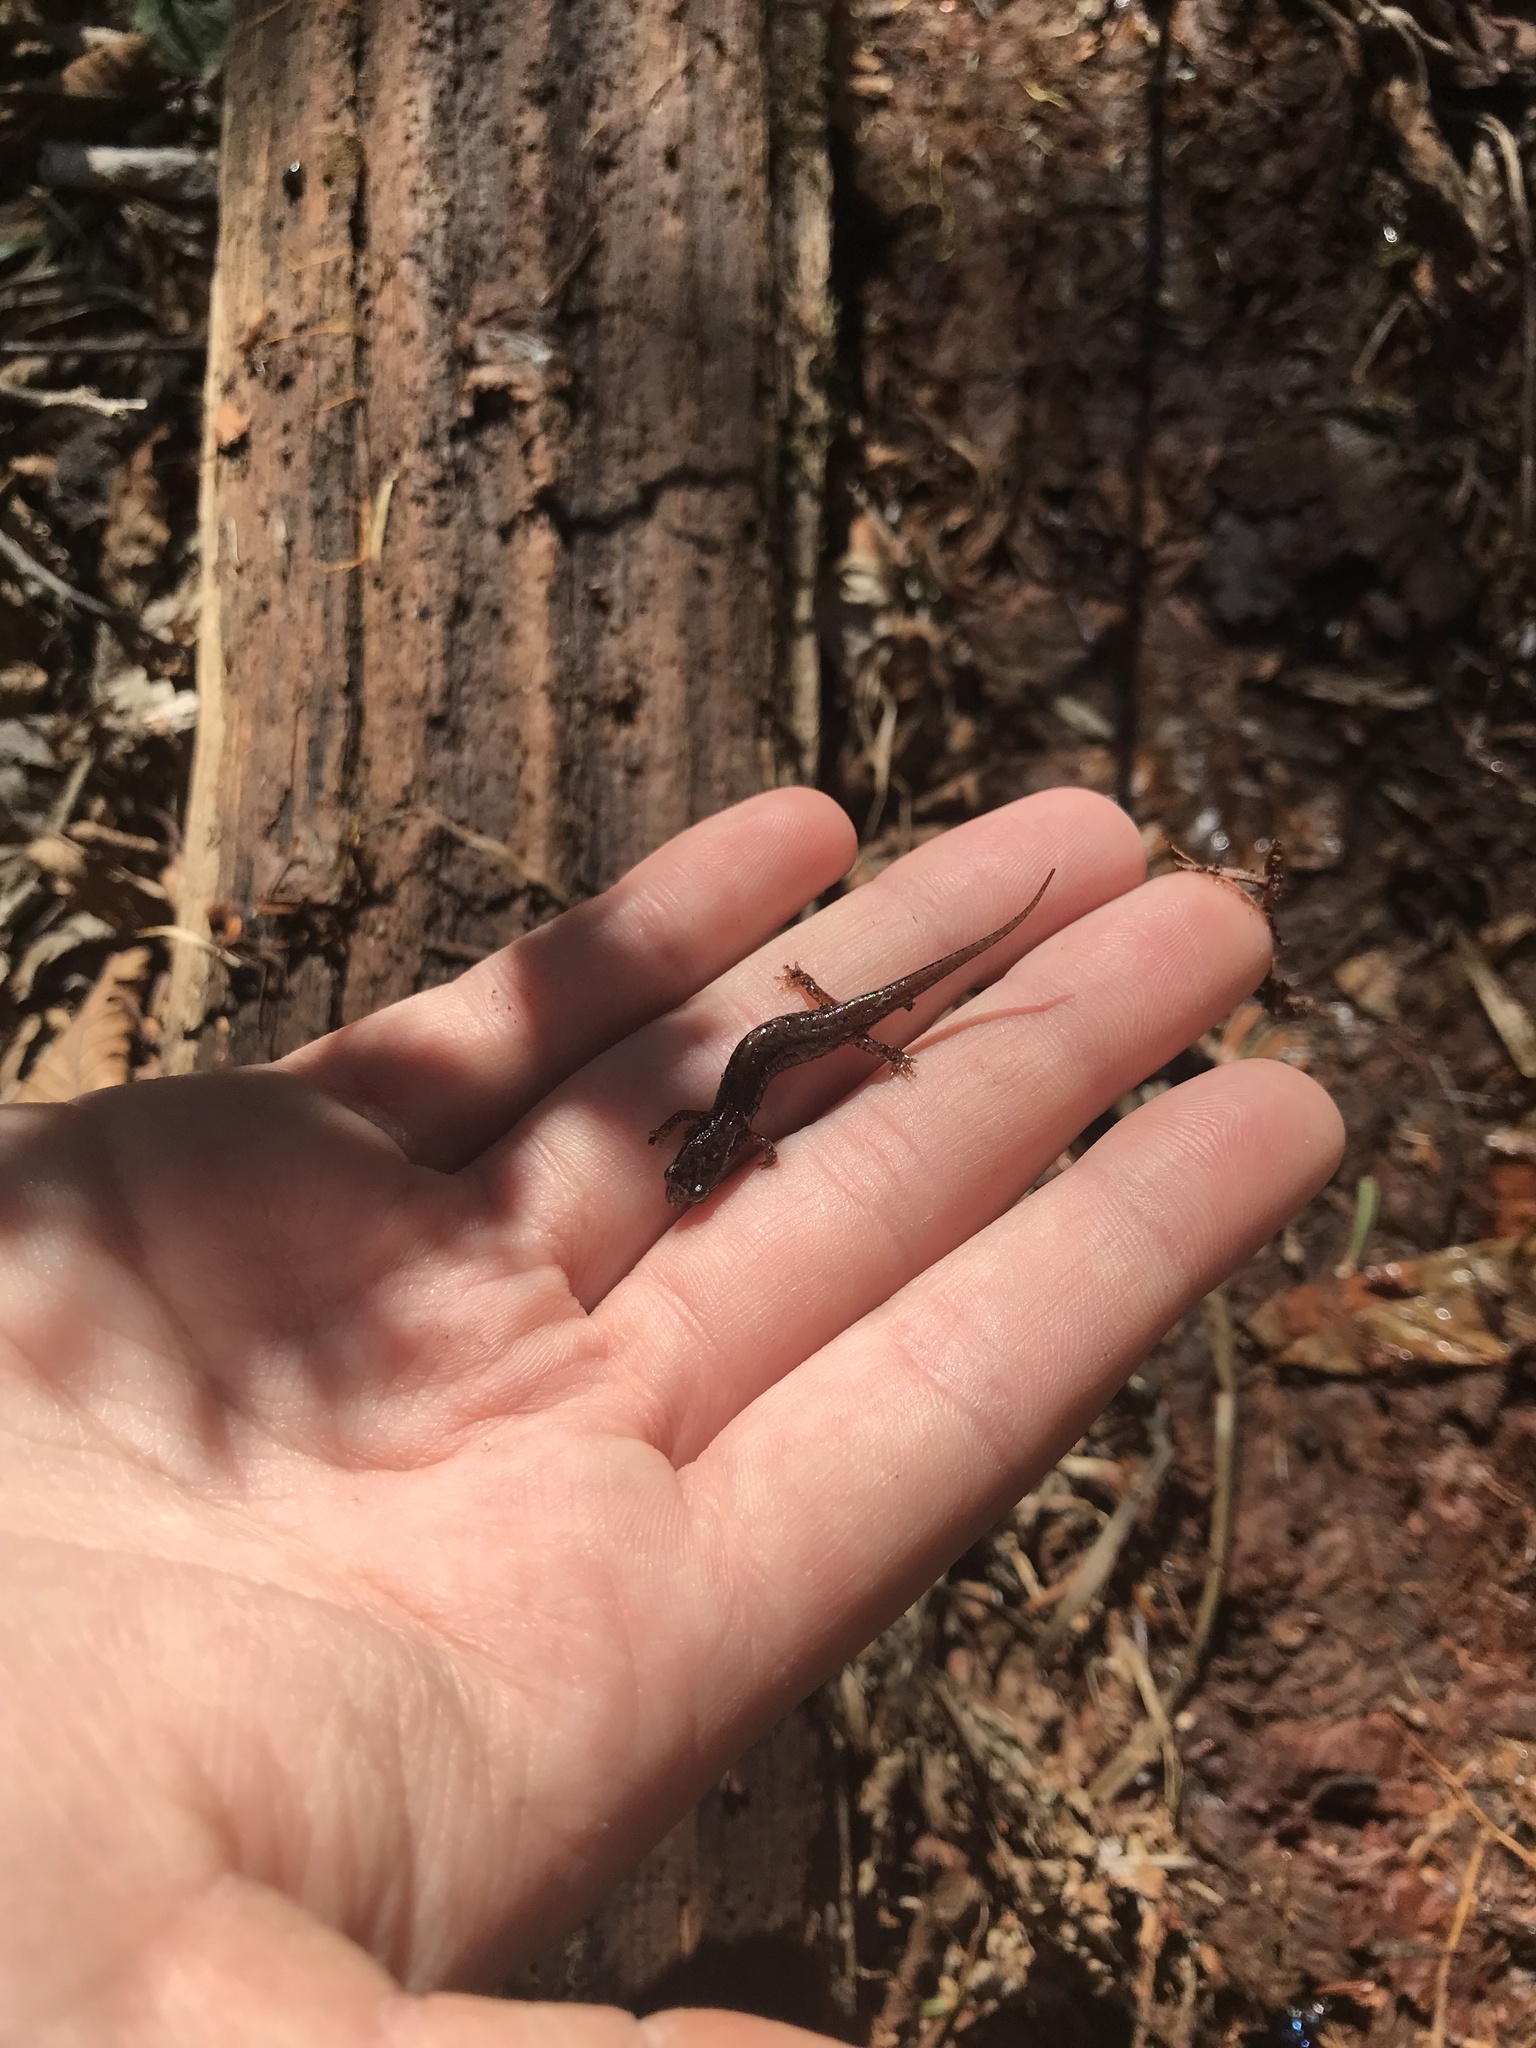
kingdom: Animalia
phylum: Chordata
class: Amphibia
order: Caudata
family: Plethodontidae
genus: Desmognathus
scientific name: Desmognathus wrighti
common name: Pygmy salamander
